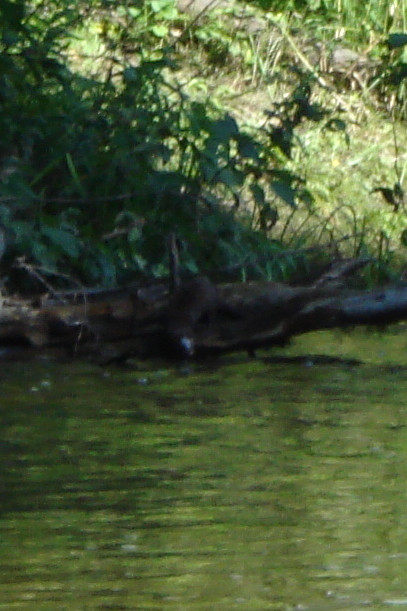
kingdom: Animalia
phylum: Chordata
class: Mammalia
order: Carnivora
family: Mustelidae
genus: Mustela
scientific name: Mustela
